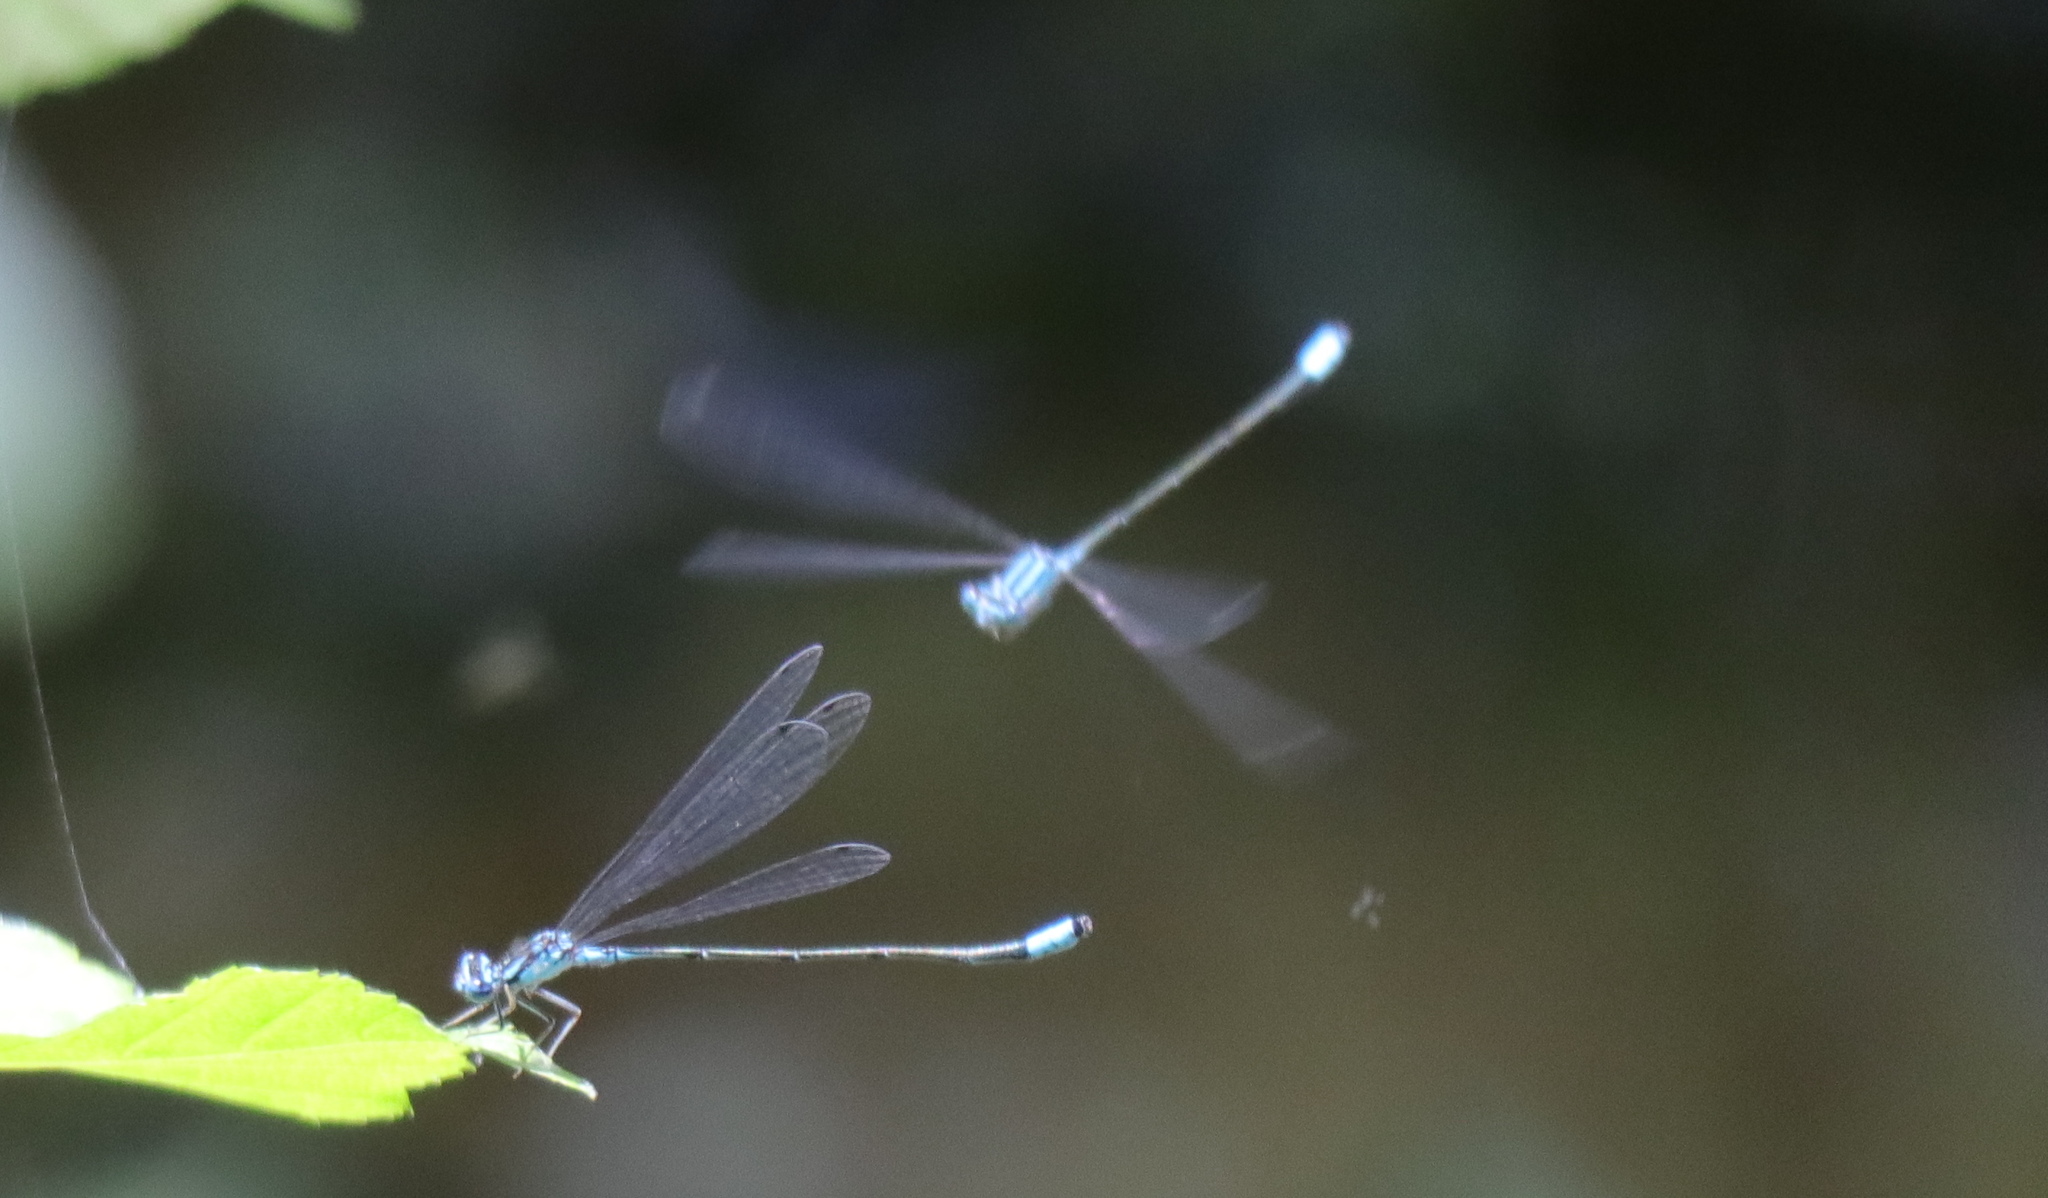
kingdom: Animalia
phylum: Arthropoda
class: Insecta
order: Odonata
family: Coenagrionidae
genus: Enallagma
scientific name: Enallagma divagans
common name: Turquoise bluet
